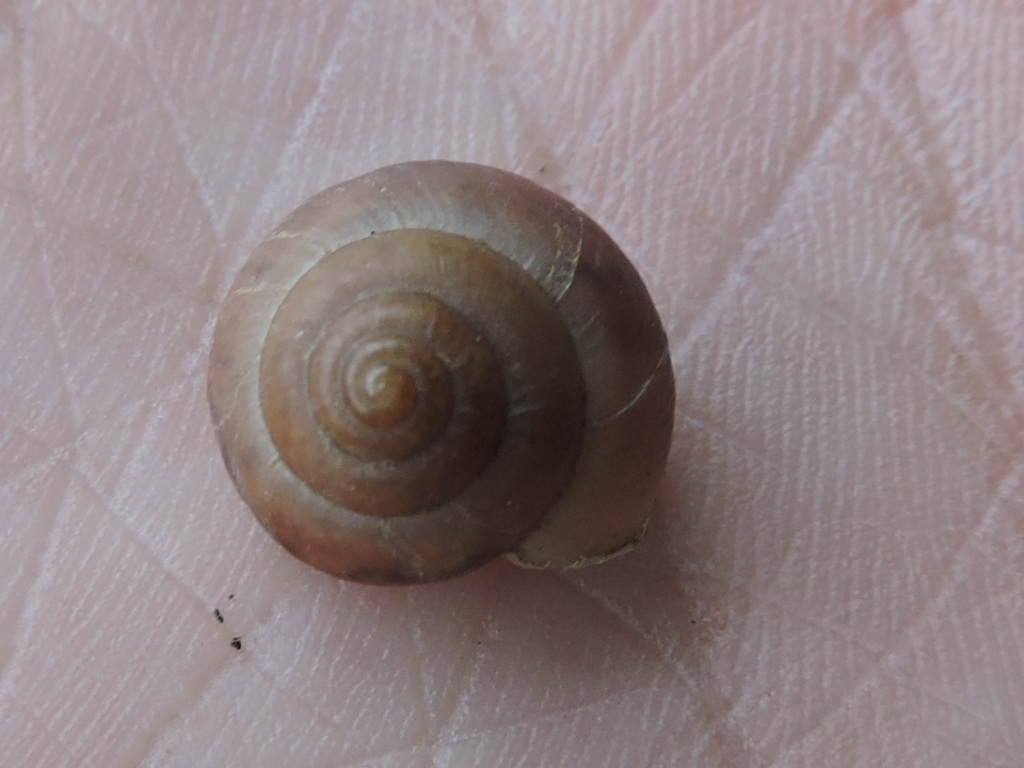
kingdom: Animalia
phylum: Mollusca
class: Gastropoda
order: Stylommatophora
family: Camaenidae
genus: Bradybaena
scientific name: Bradybaena similaris
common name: Asian trampsnail
